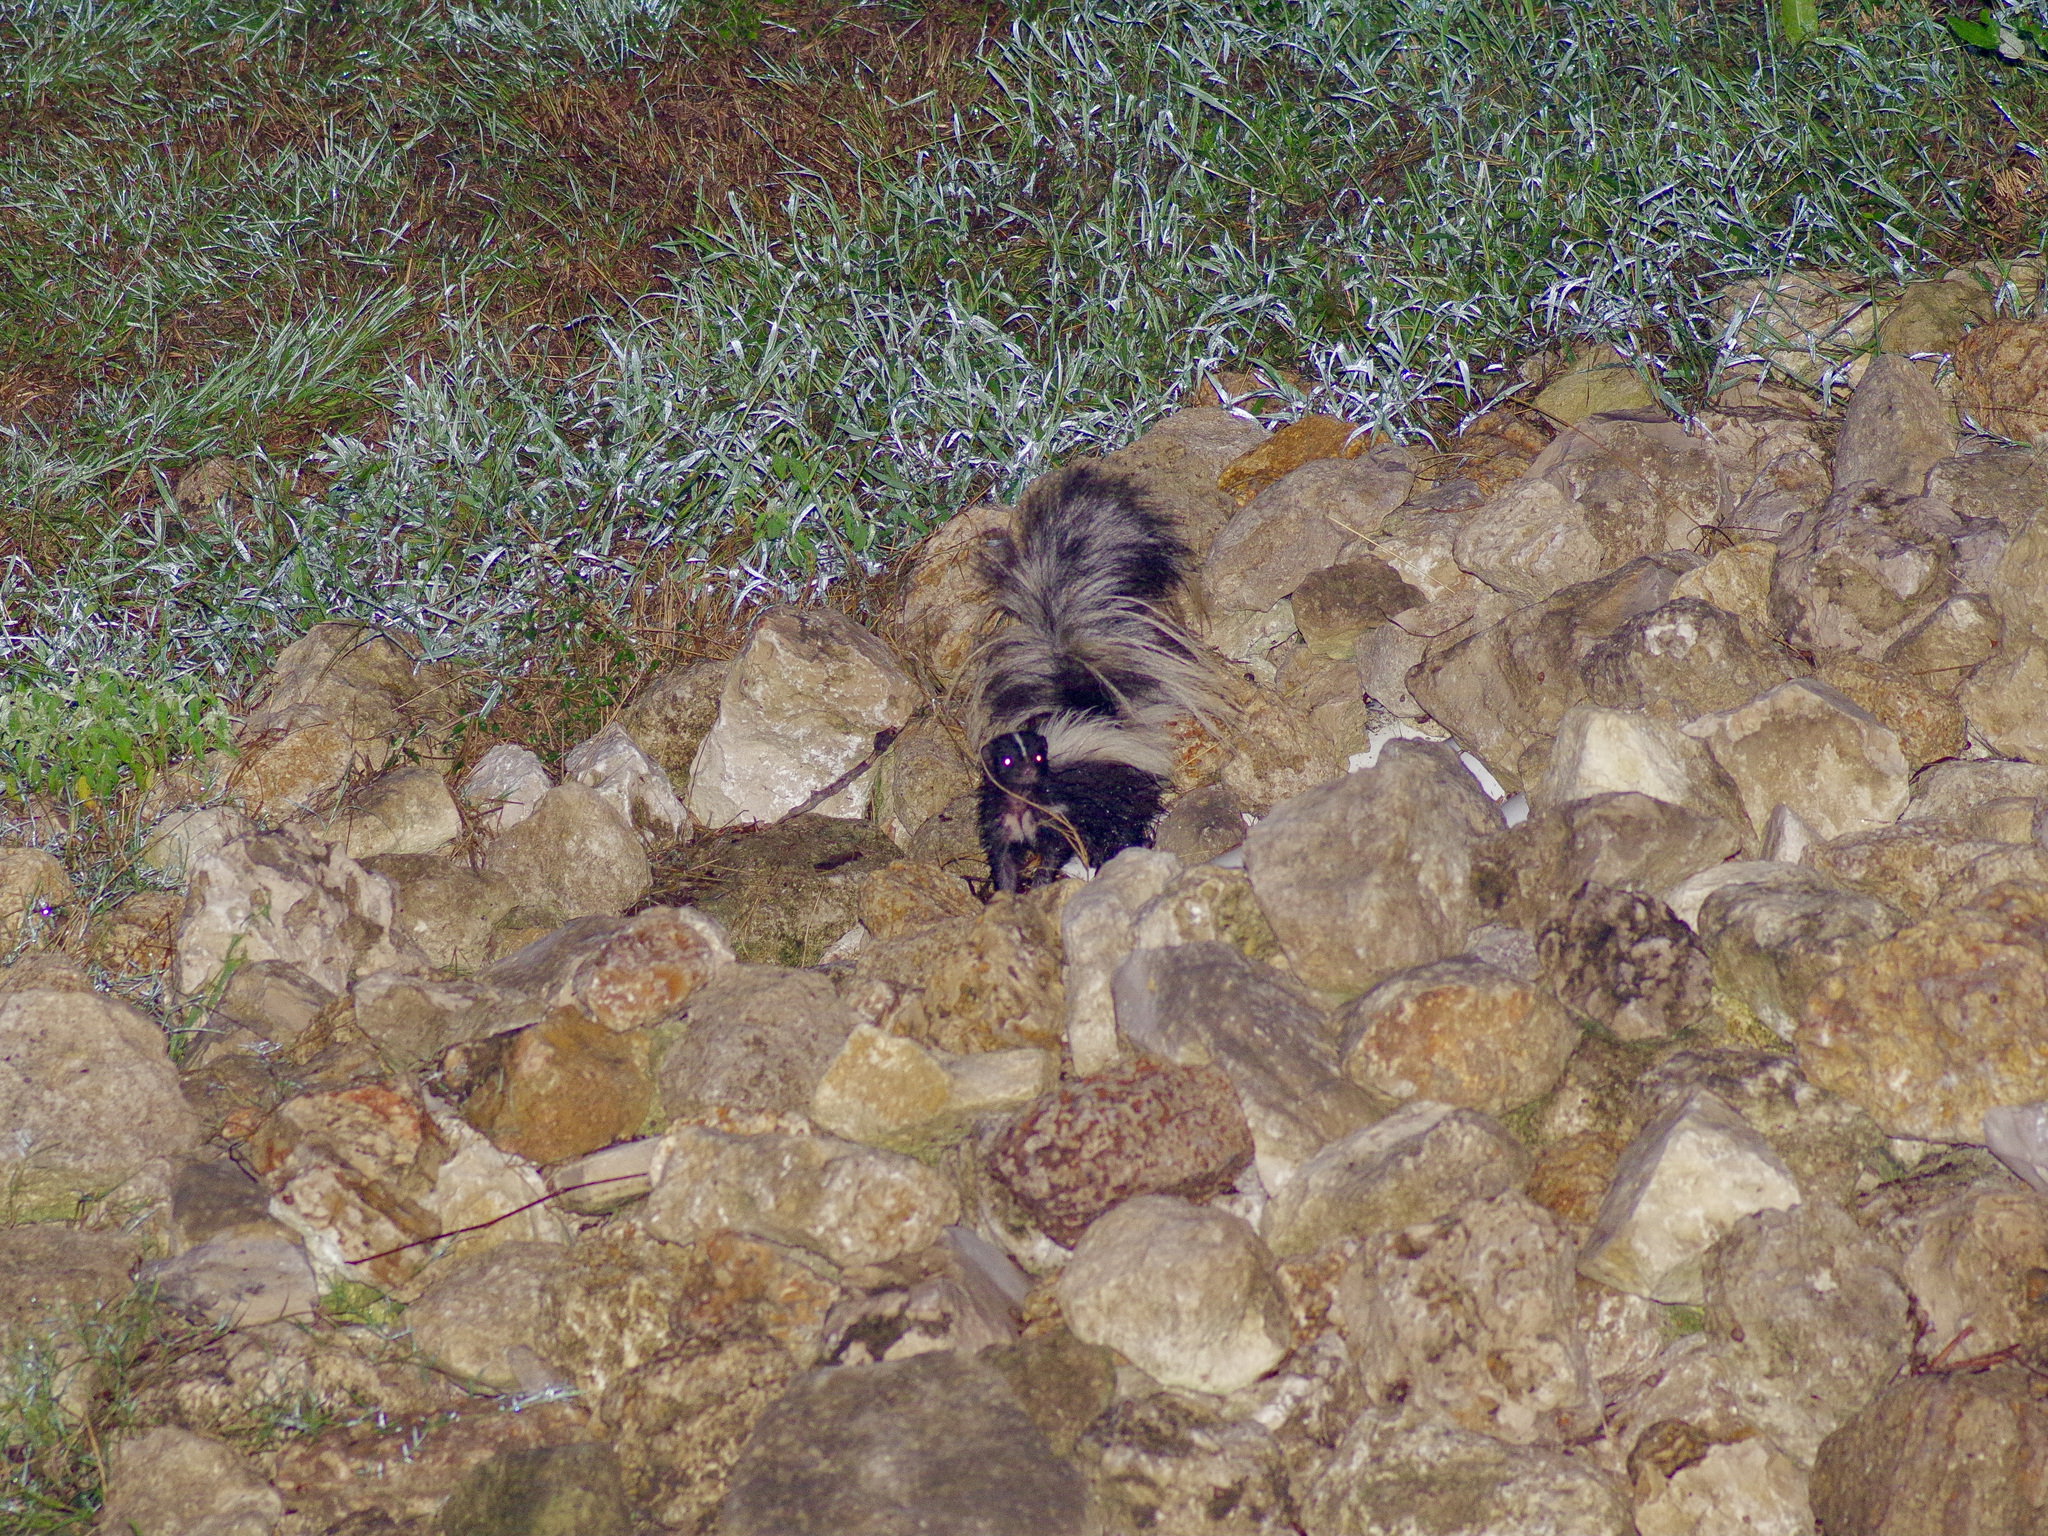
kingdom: Animalia
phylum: Chordata
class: Mammalia
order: Carnivora
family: Mephitidae
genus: Mephitis
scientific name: Mephitis mephitis
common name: Striped skunk
